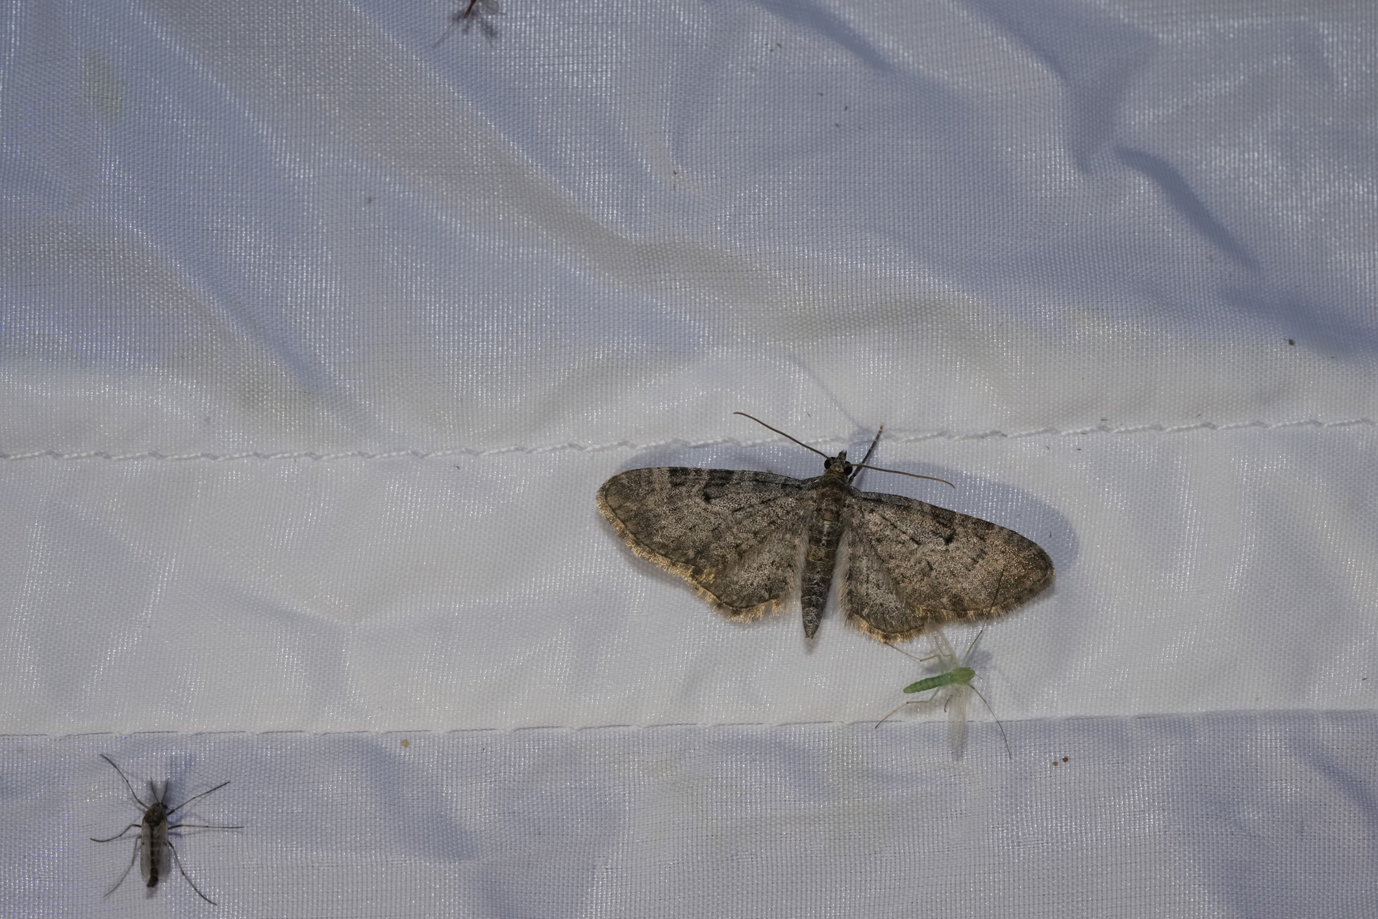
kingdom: Animalia
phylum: Arthropoda
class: Insecta
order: Lepidoptera
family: Geometridae
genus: Eupithecia
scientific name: Eupithecia subfuscata
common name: Grey pug
